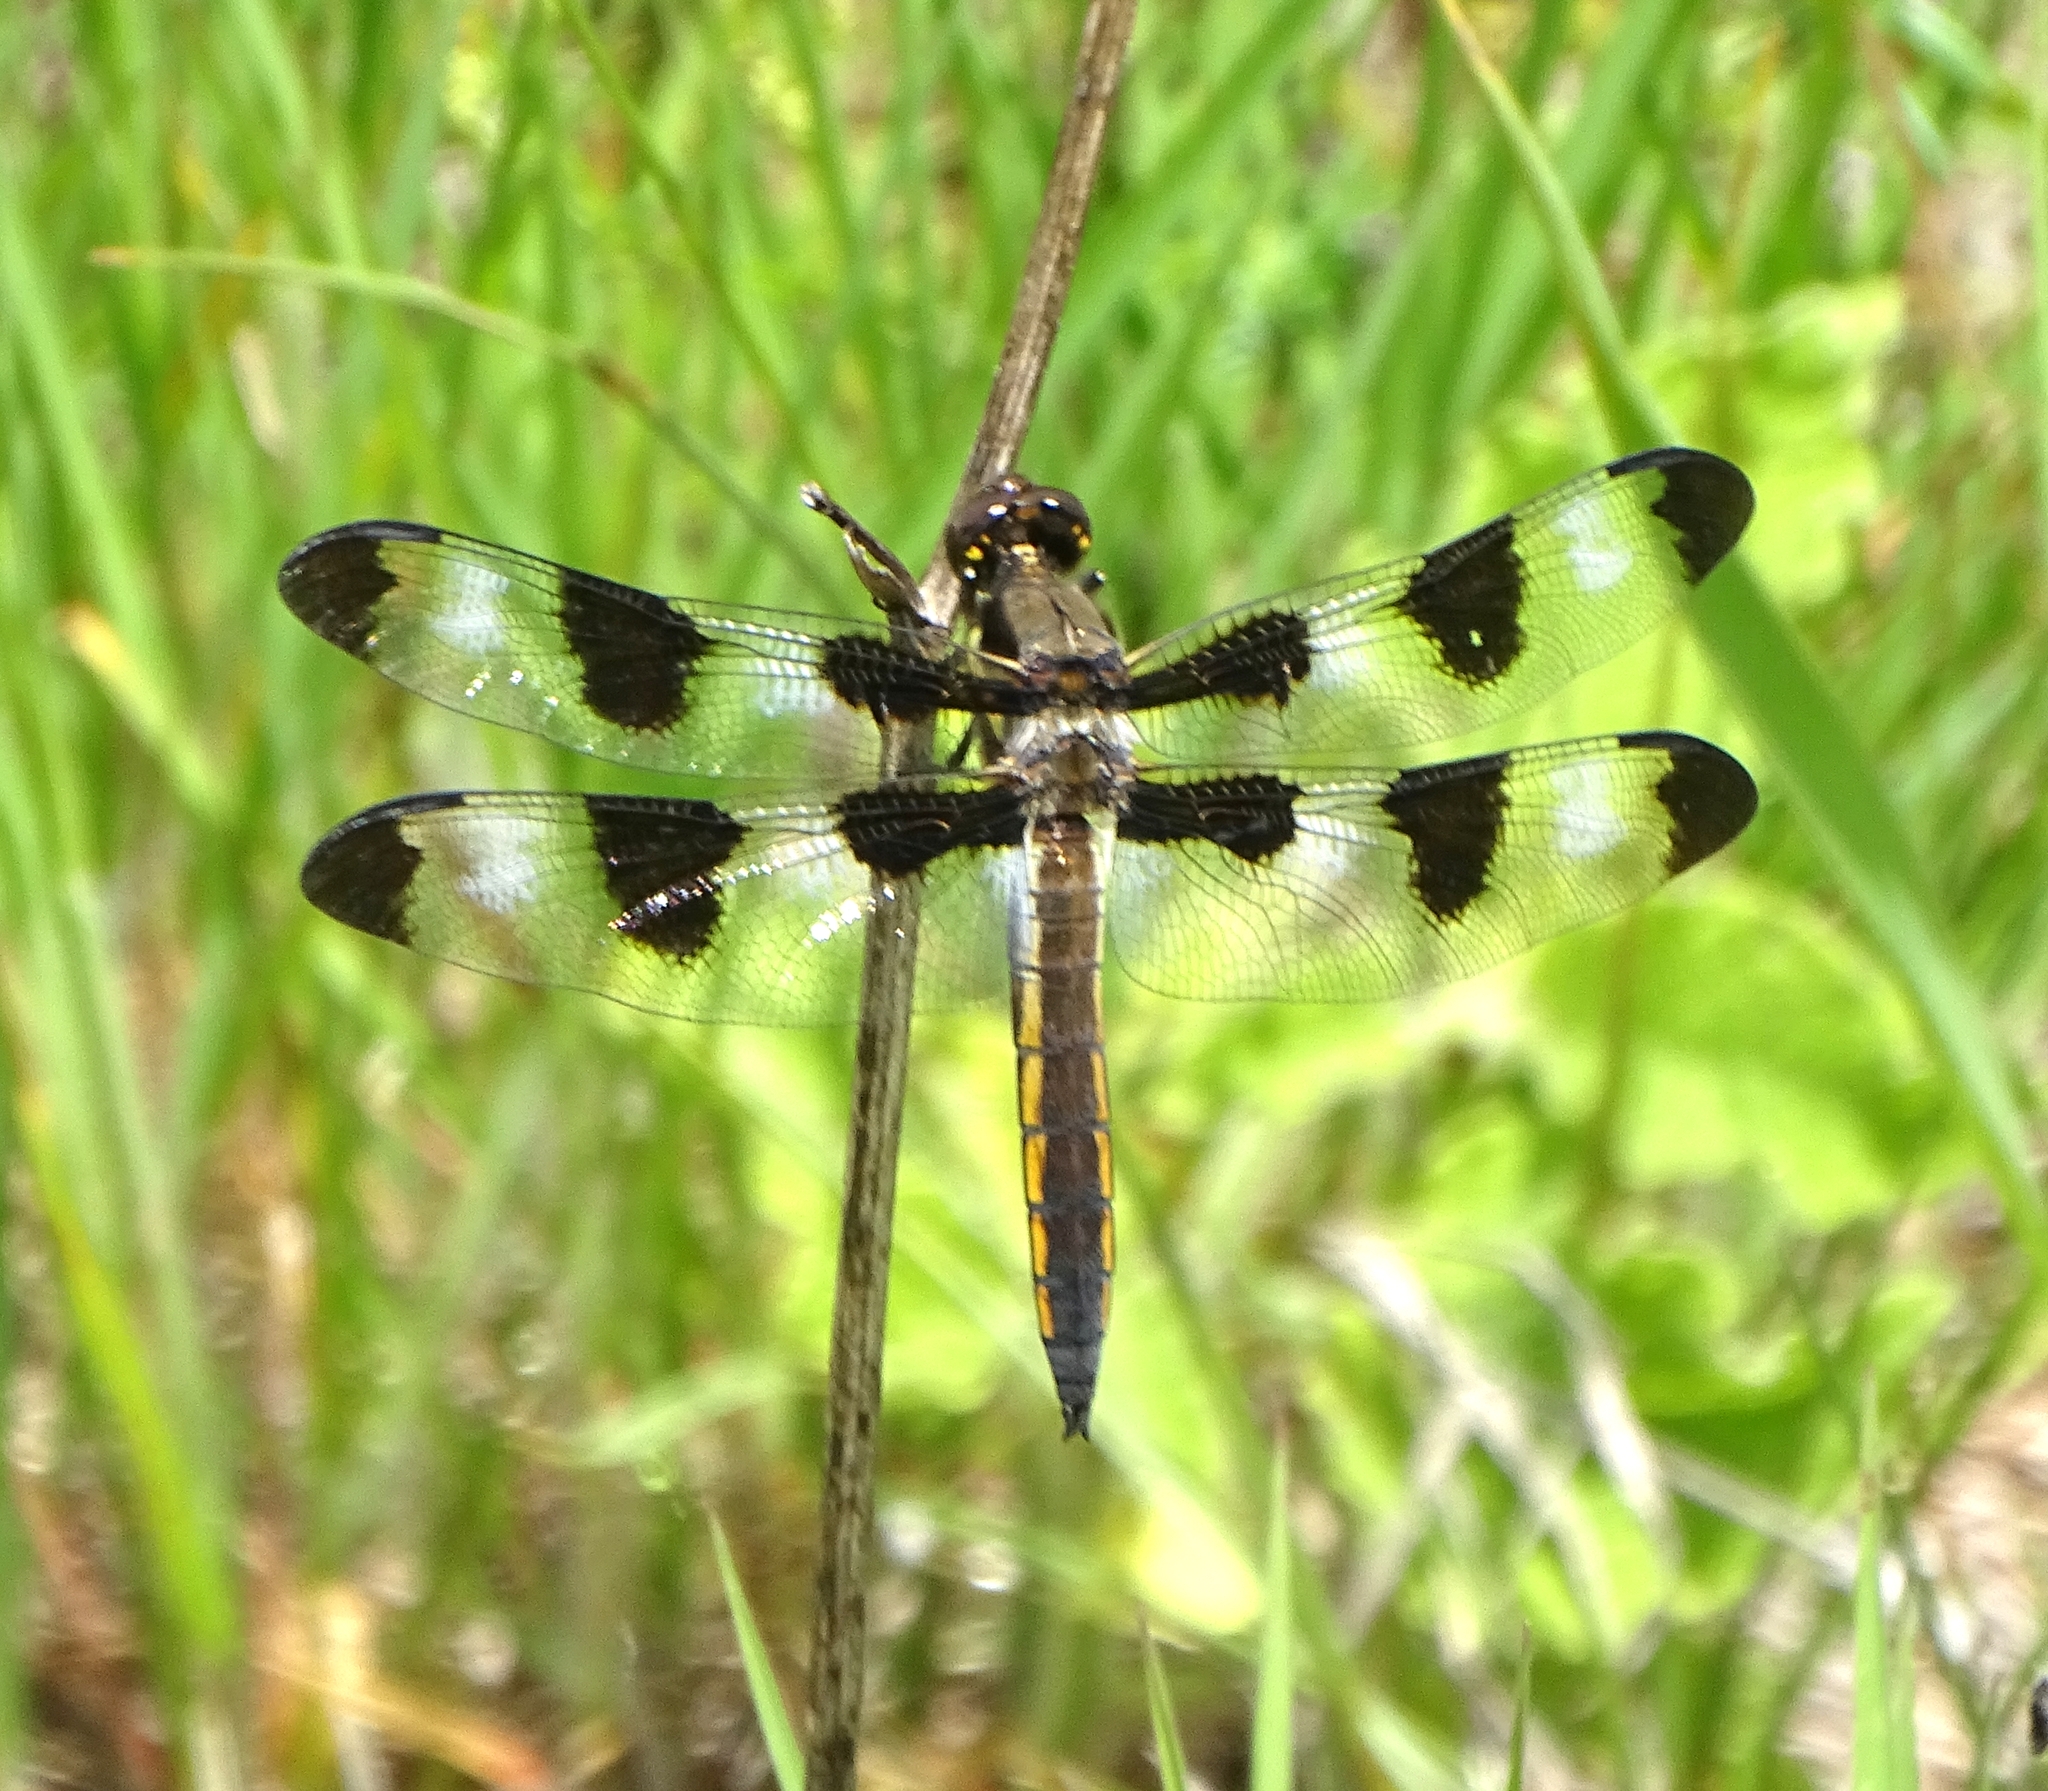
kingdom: Animalia
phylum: Arthropoda
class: Insecta
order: Odonata
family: Libellulidae
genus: Libellula
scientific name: Libellula pulchella
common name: Twelve-spotted skimmer
